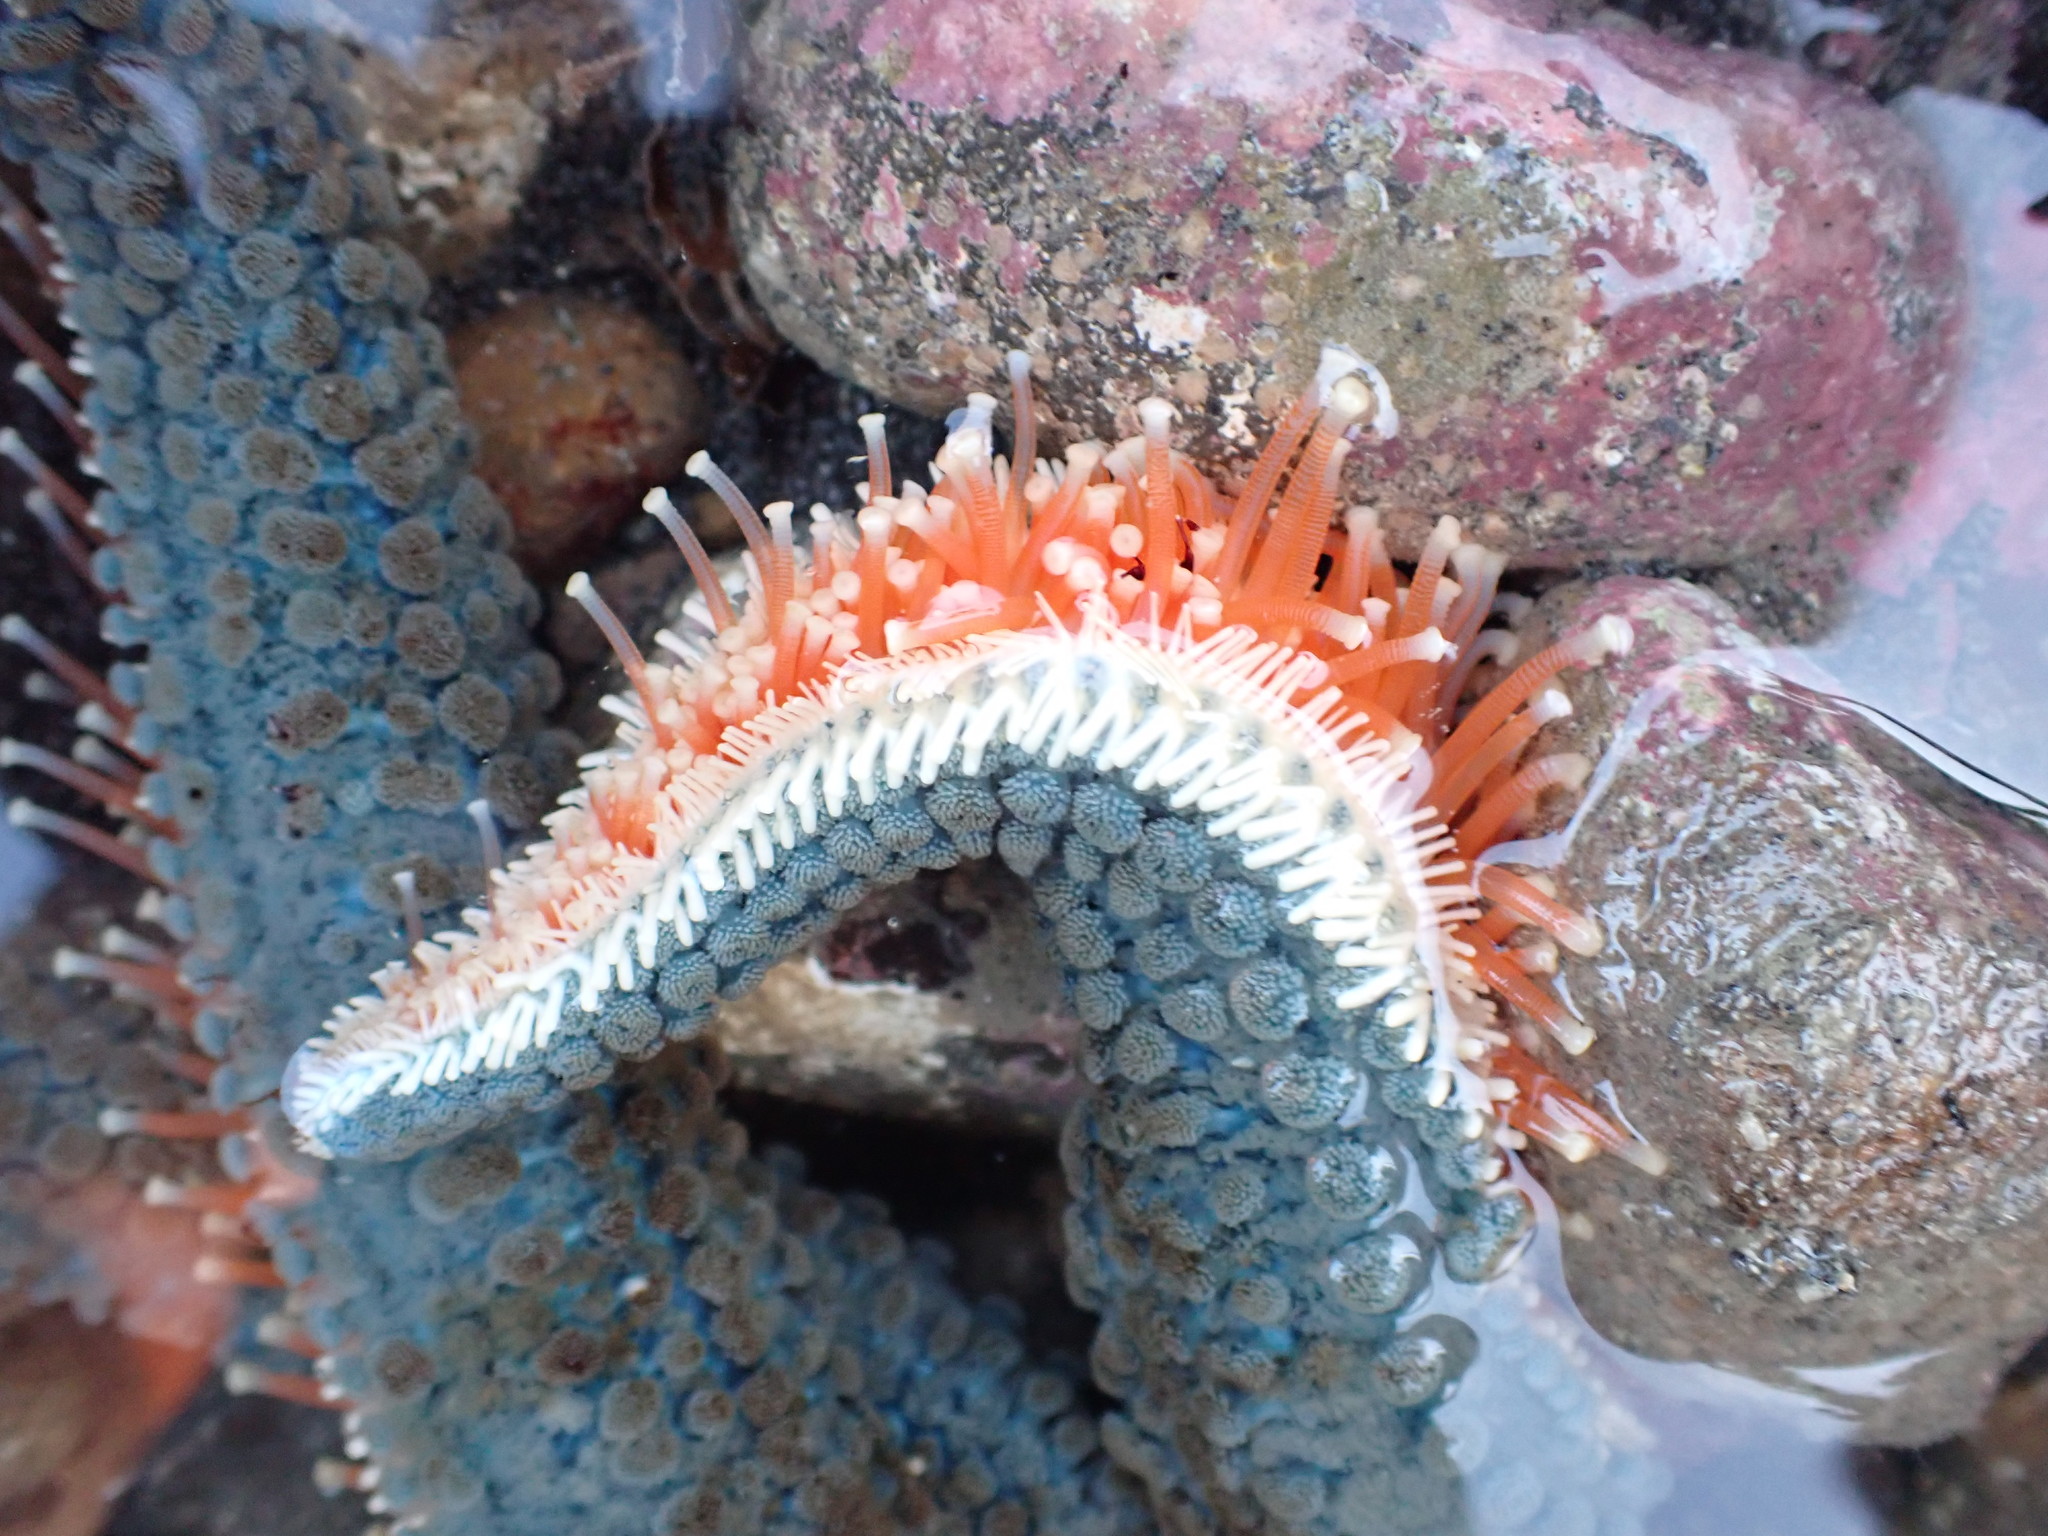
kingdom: Animalia
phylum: Echinodermata
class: Asteroidea
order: Forcipulatida
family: Asteriidae
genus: Astrostole
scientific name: Astrostole scabra
